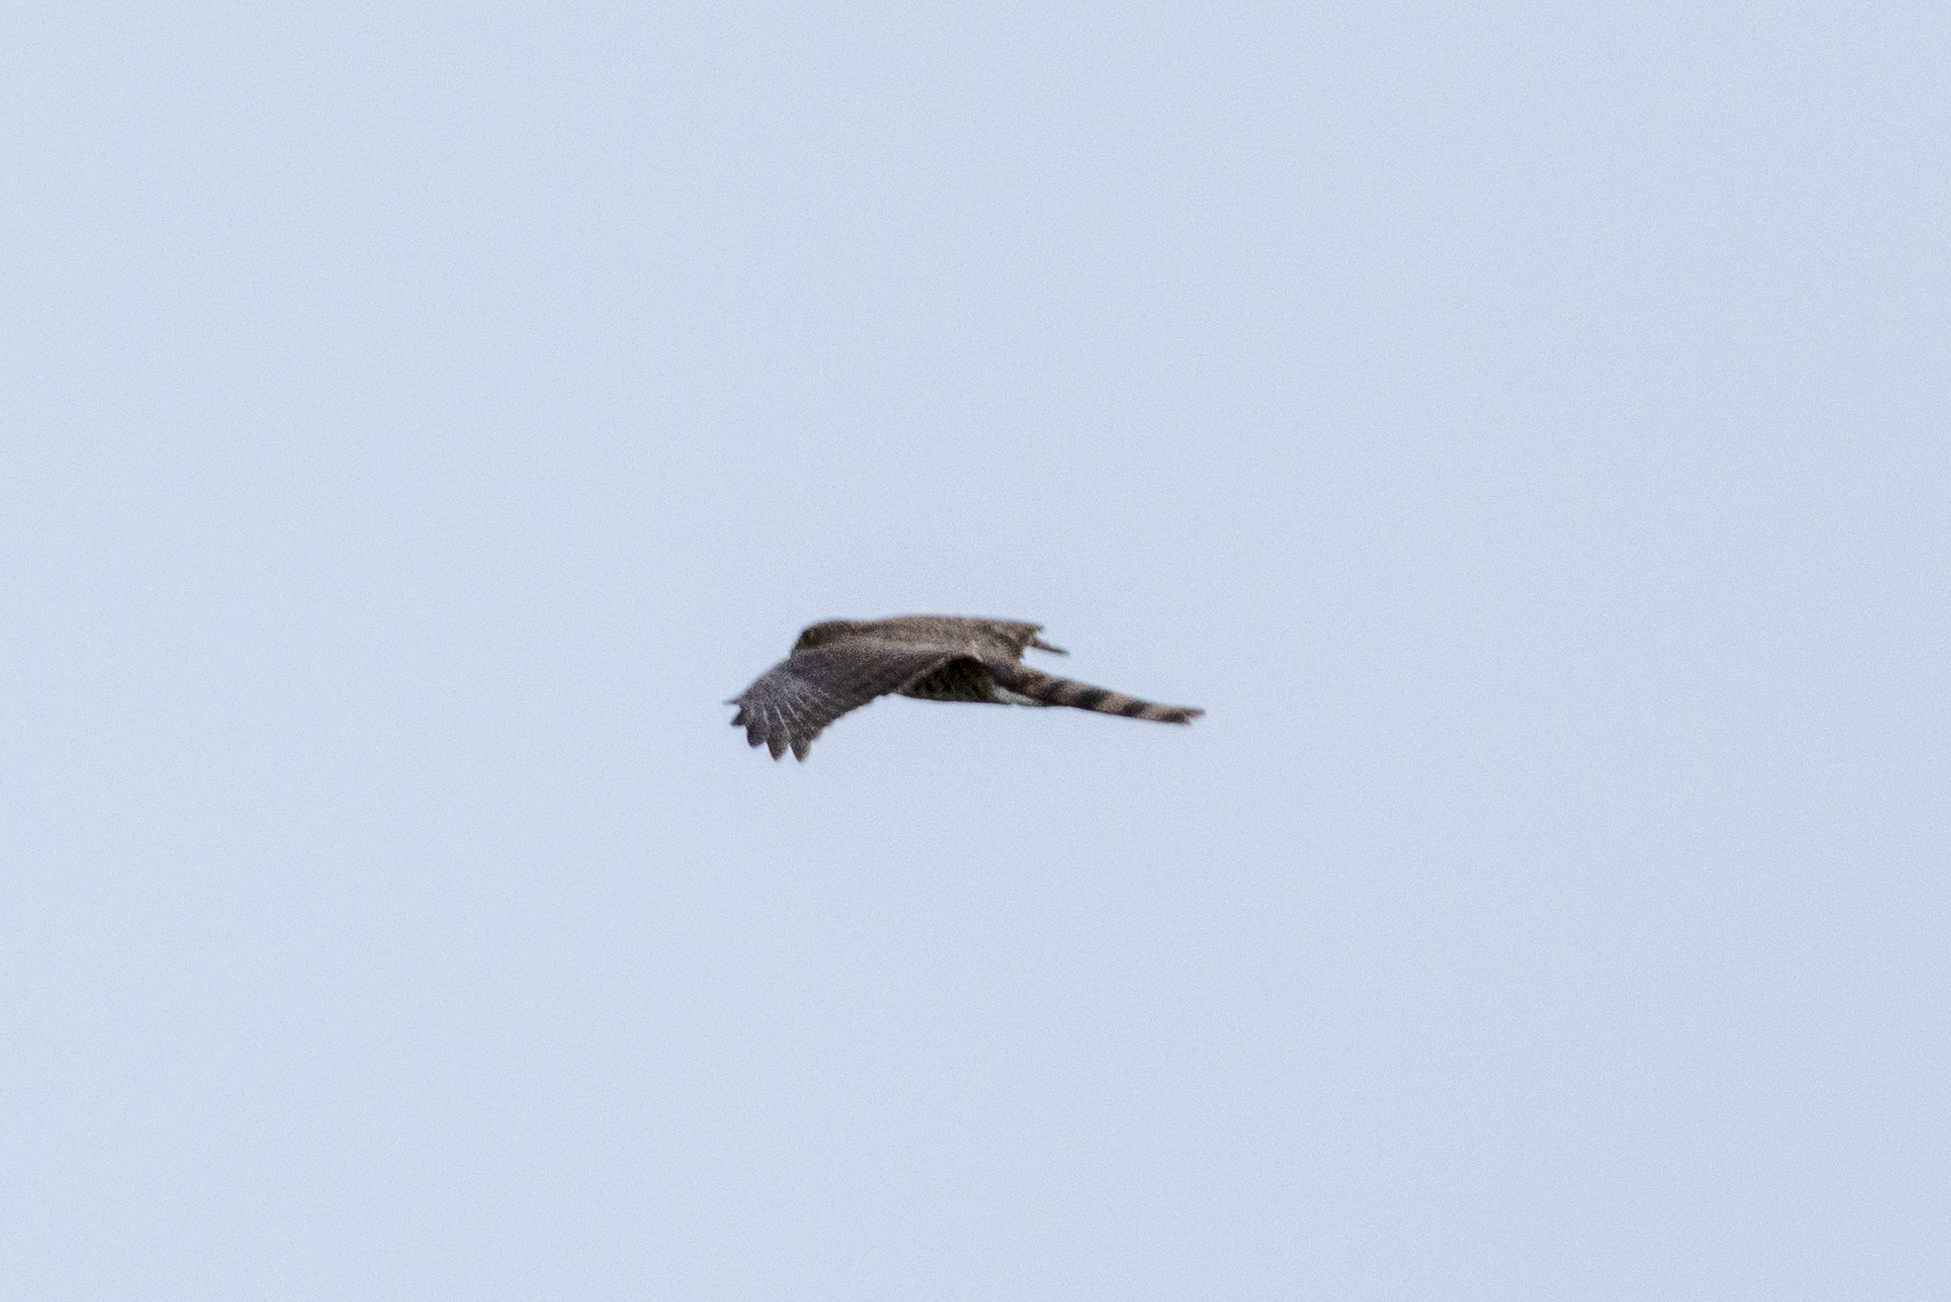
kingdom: Animalia
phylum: Chordata
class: Aves
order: Accipitriformes
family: Accipitridae
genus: Accipiter
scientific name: Accipiter virgatus
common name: Besra
